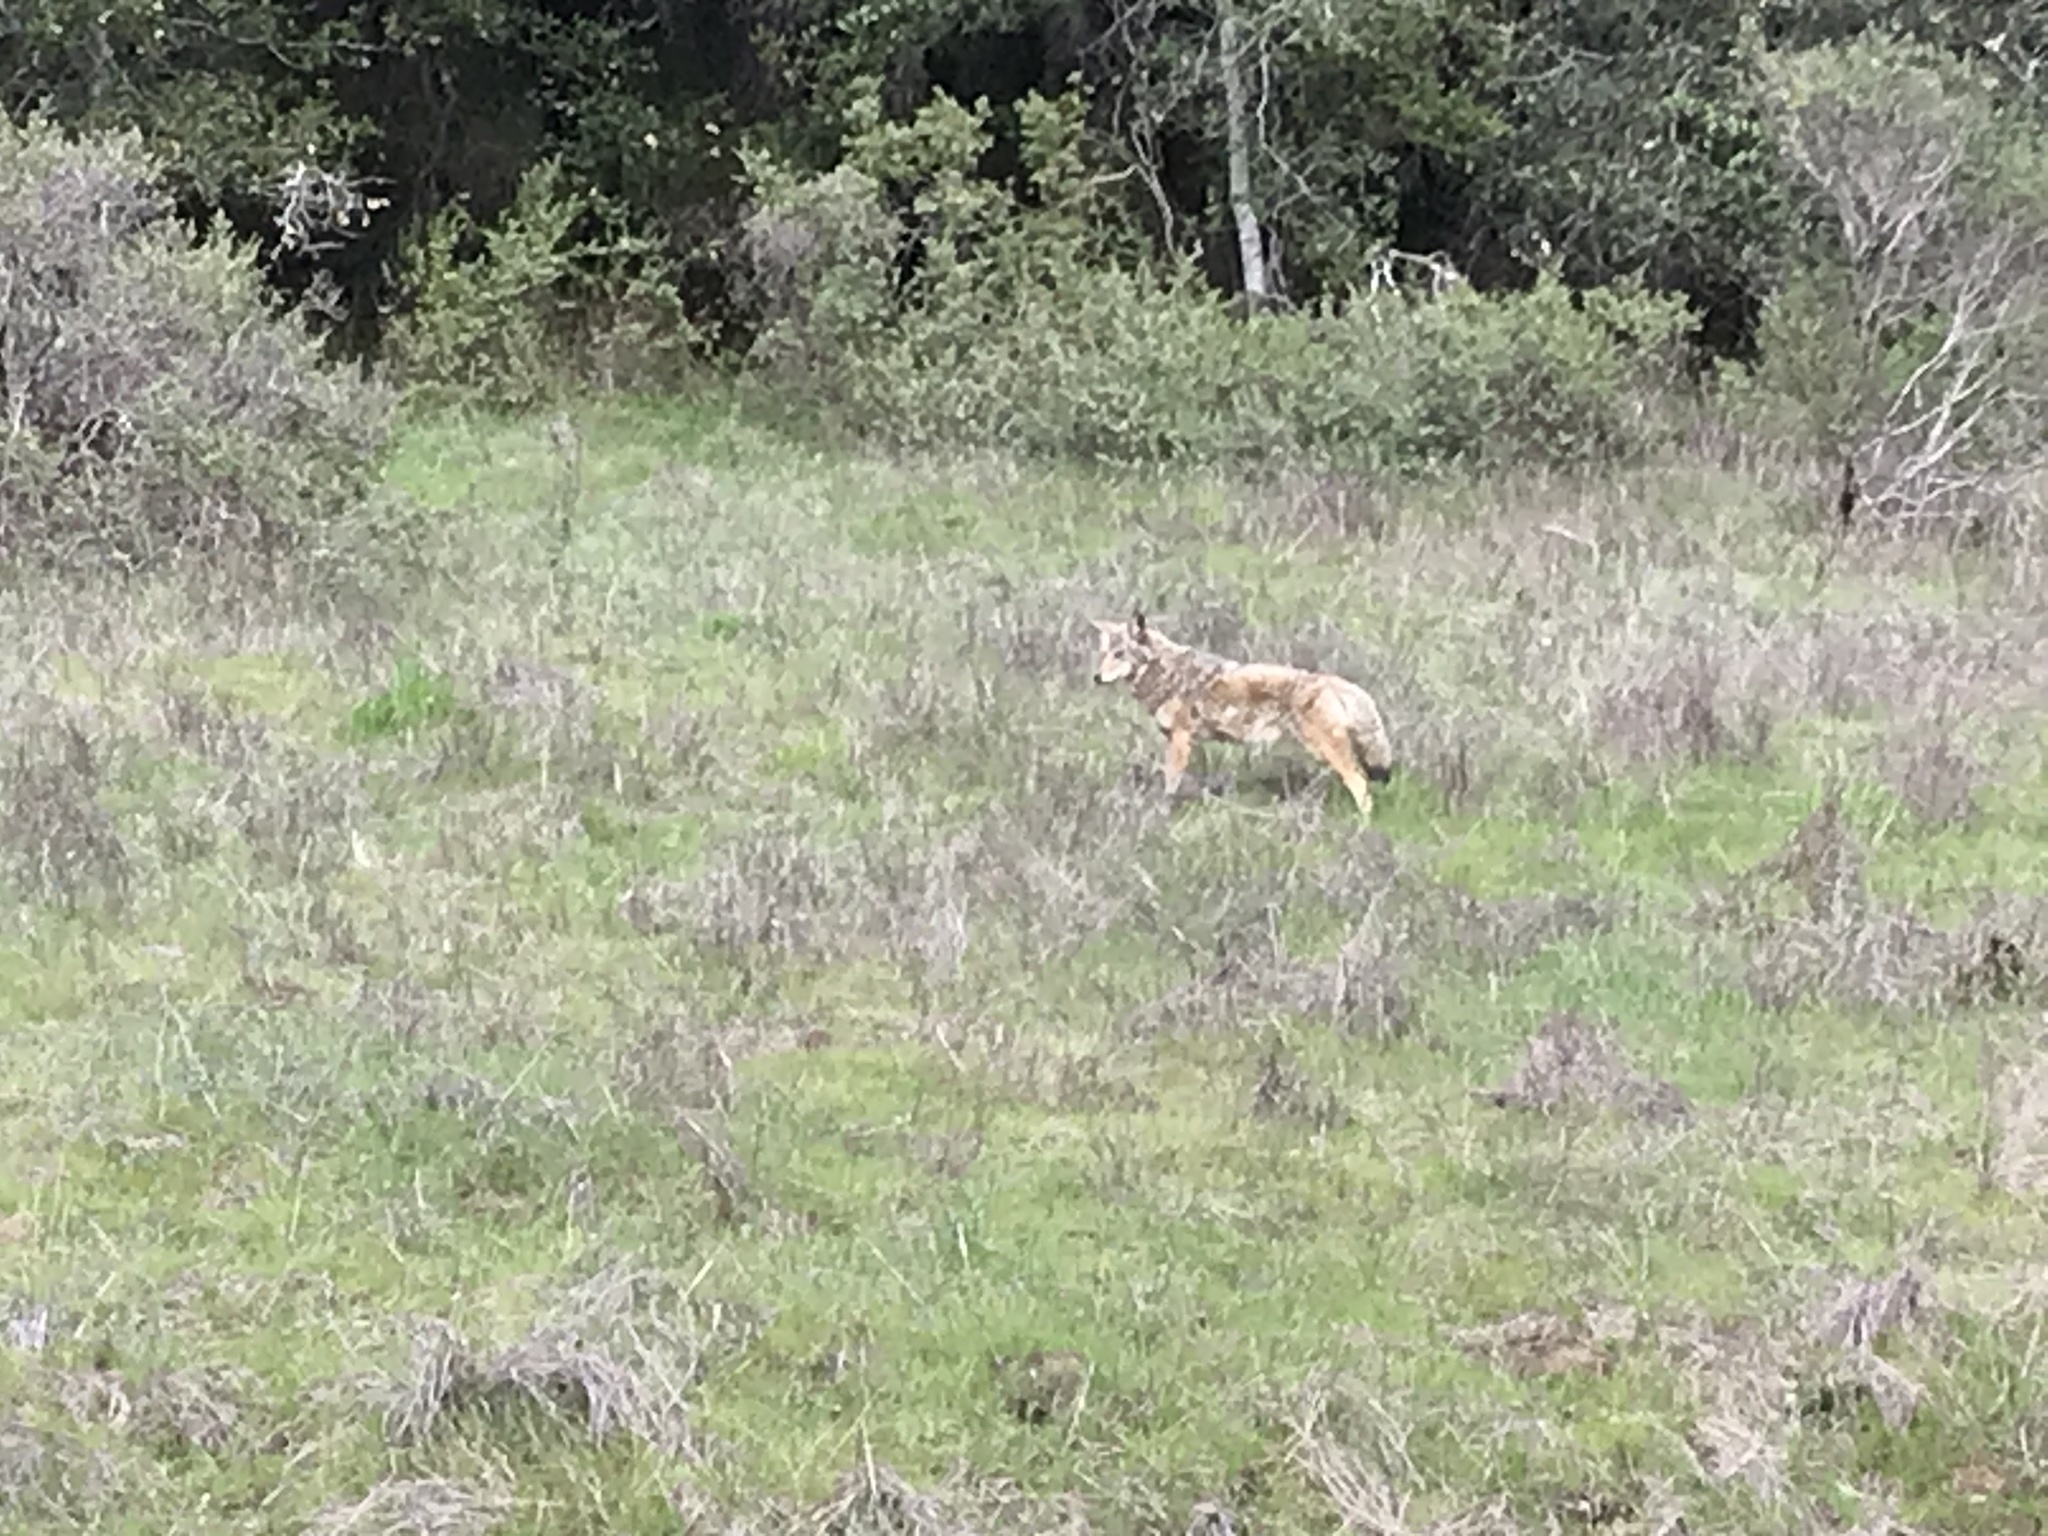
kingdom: Animalia
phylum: Chordata
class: Mammalia
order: Carnivora
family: Canidae
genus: Canis
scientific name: Canis latrans
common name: Coyote
